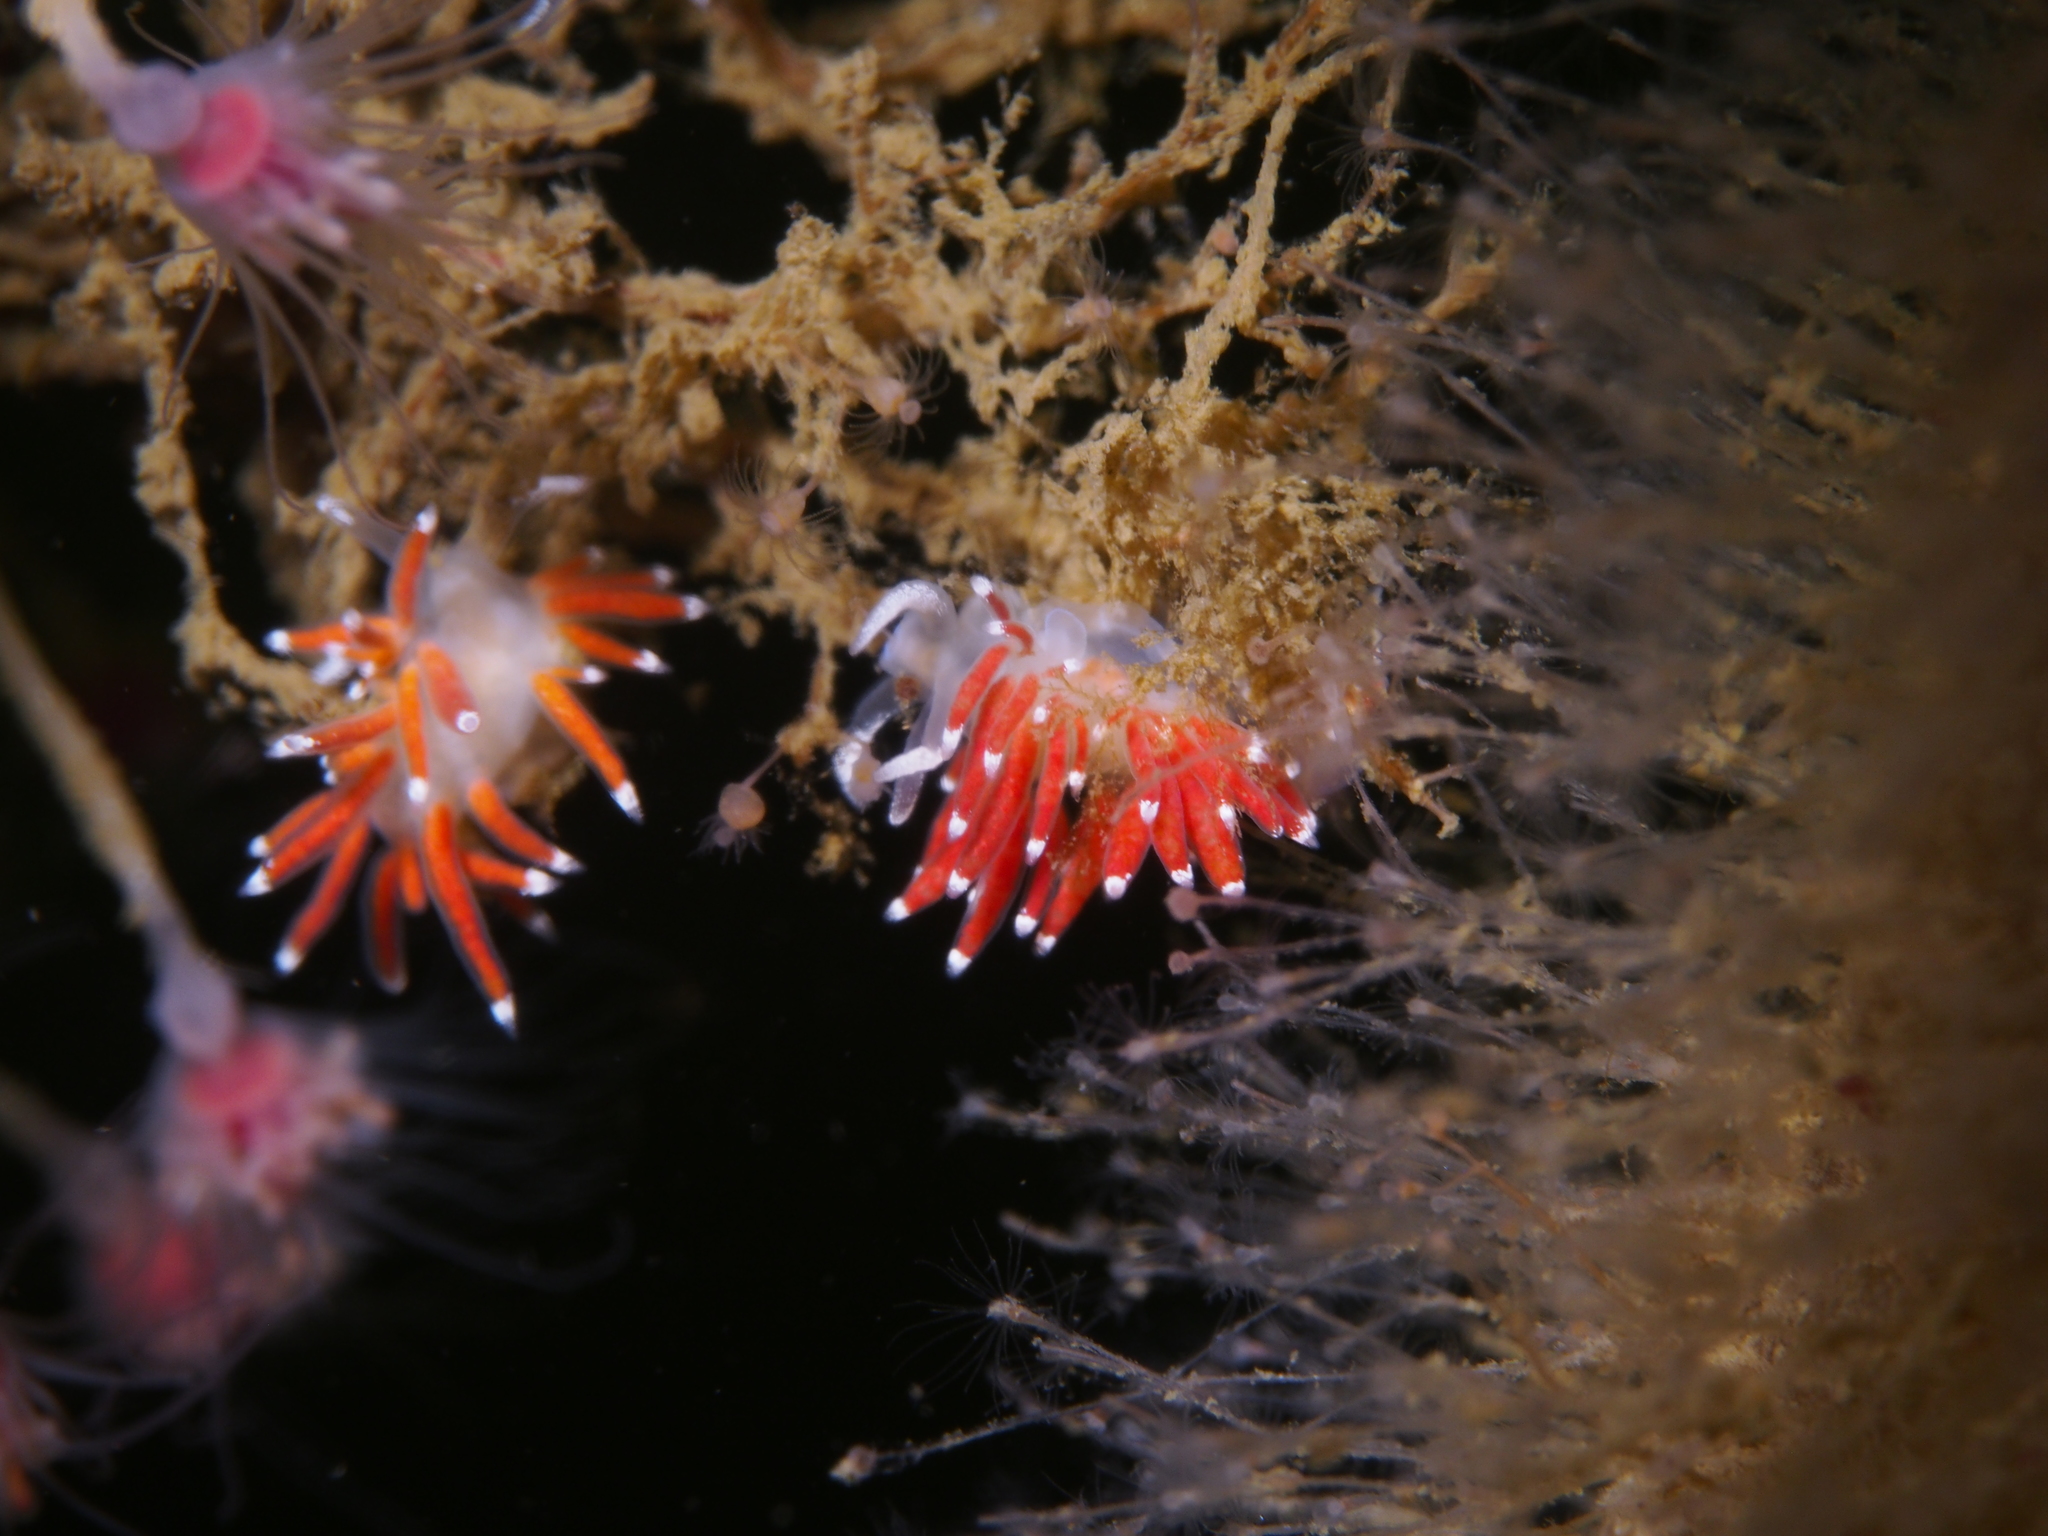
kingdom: Animalia
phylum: Mollusca
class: Gastropoda
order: Nudibranchia
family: Coryphellidae
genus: Coryphella
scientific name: Coryphella gracilis
